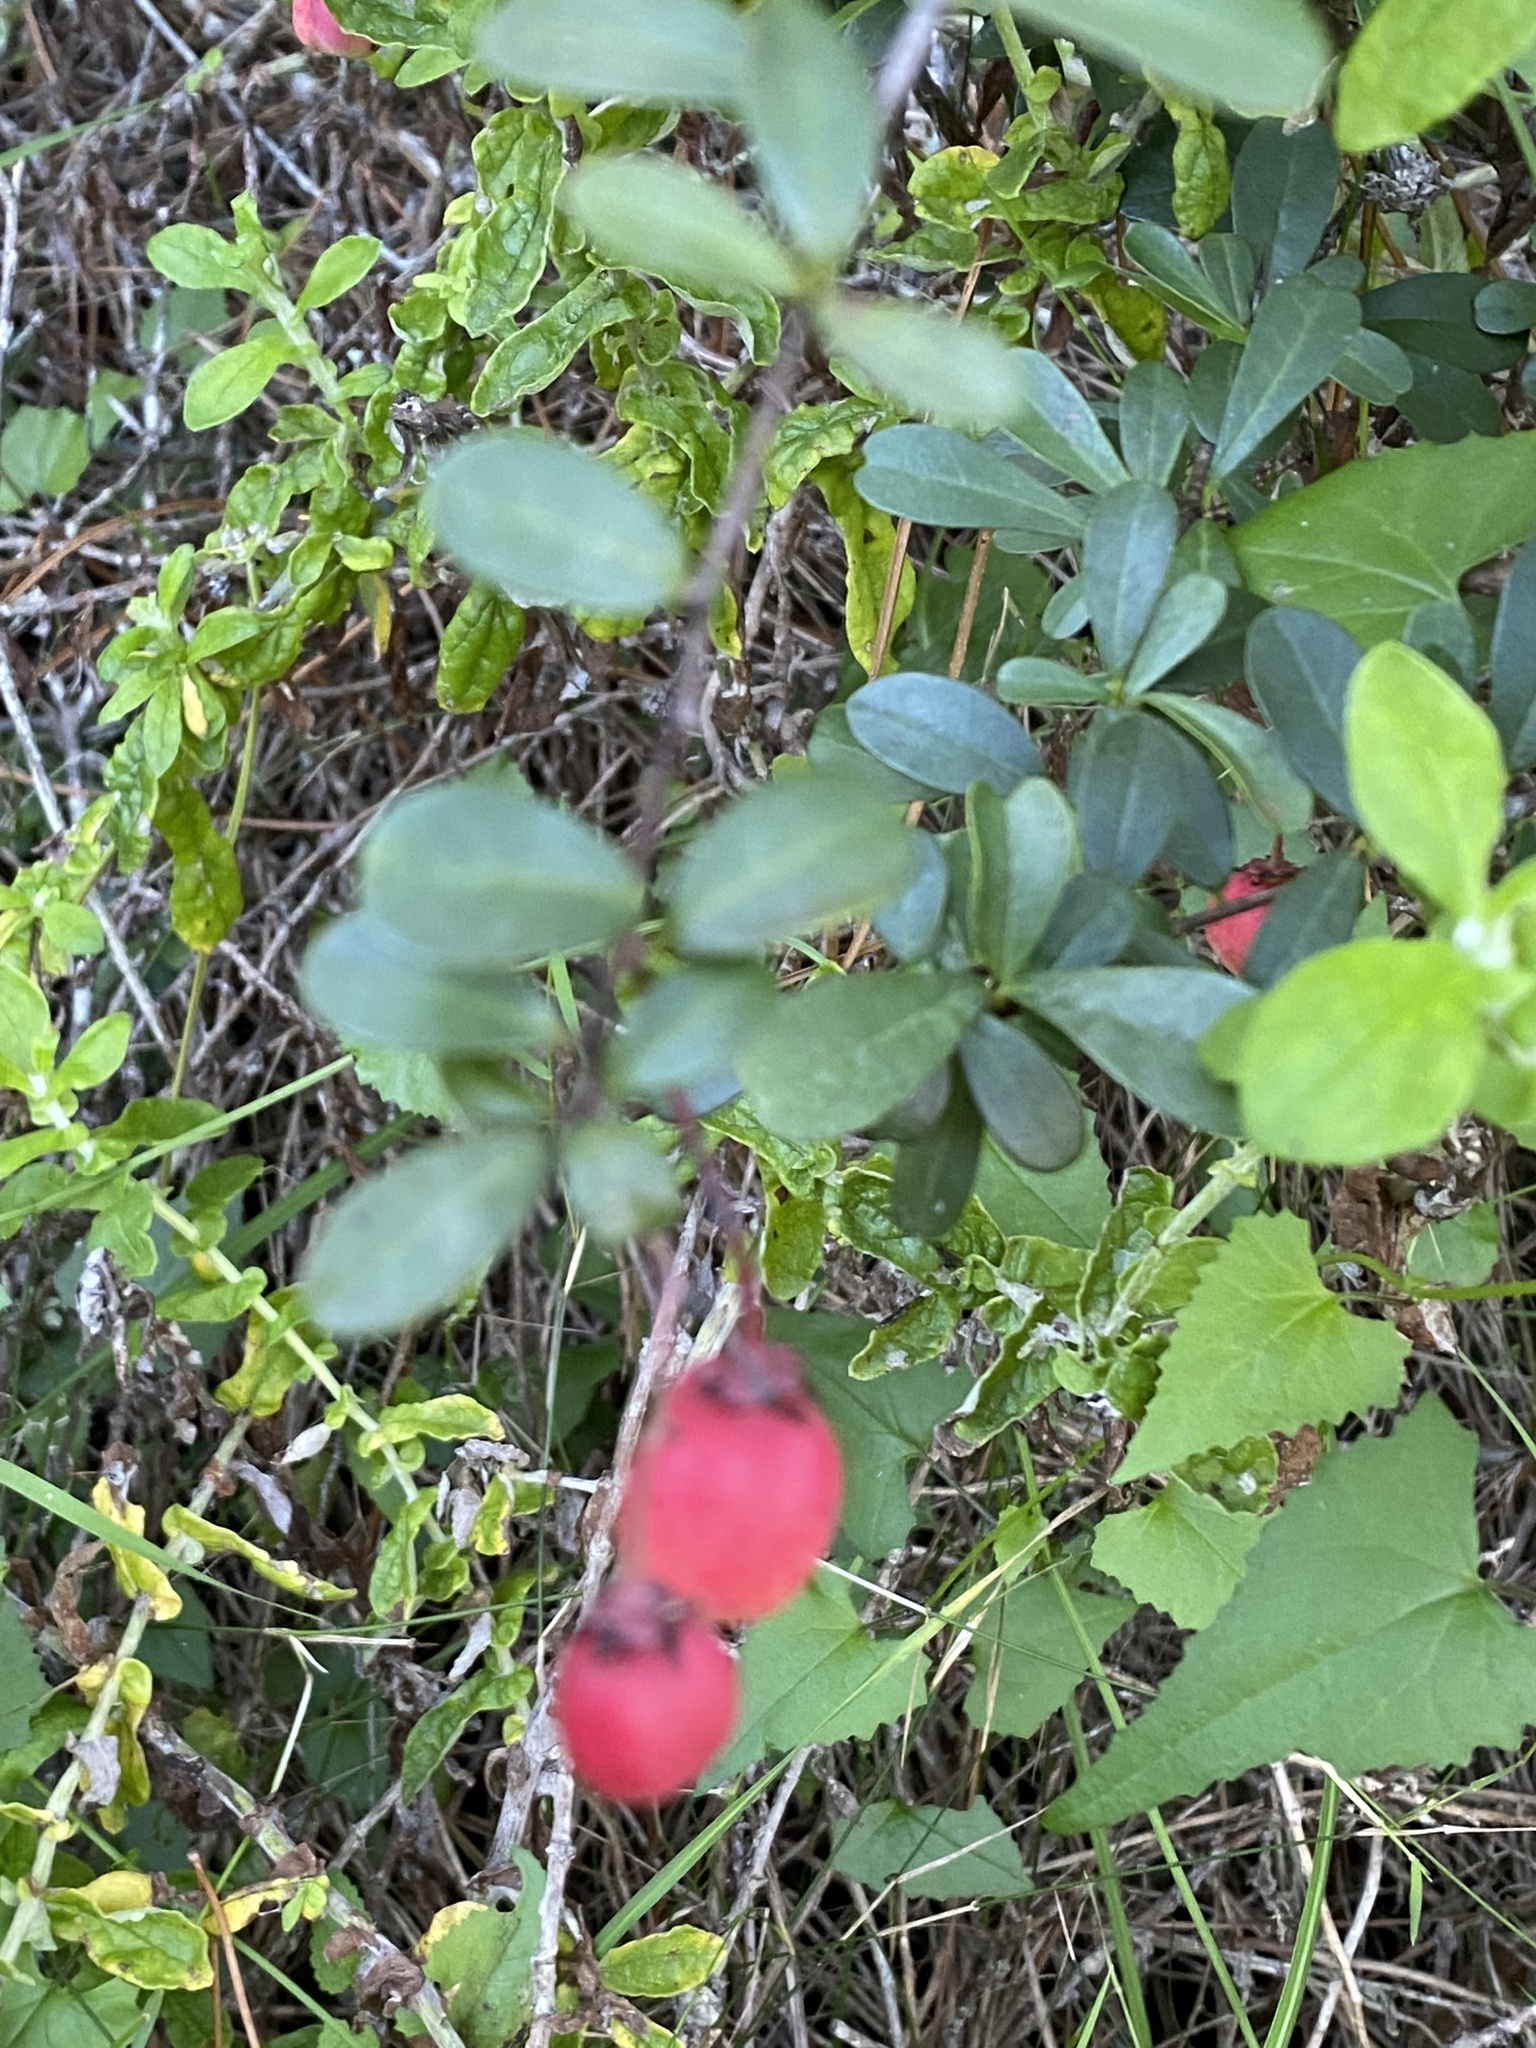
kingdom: Plantae
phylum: Tracheophyta
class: Magnoliopsida
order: Celastrales
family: Celastraceae
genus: Putterlickia
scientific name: Putterlickia pyracantha
